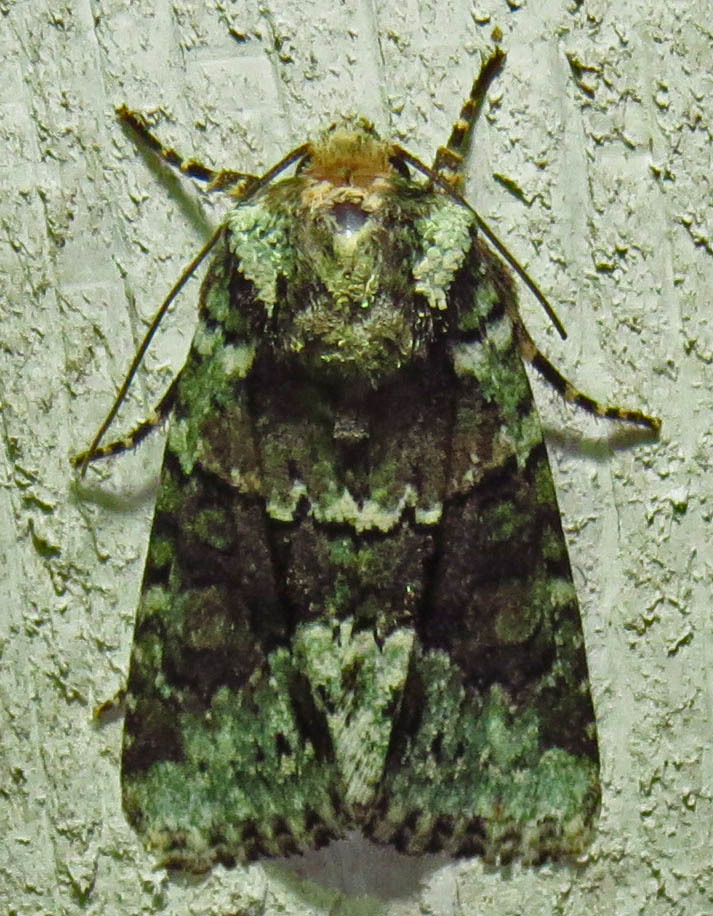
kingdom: Animalia
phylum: Arthropoda
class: Insecta
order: Lepidoptera
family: Noctuidae
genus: Lacinipolia
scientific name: Lacinipolia explicata
